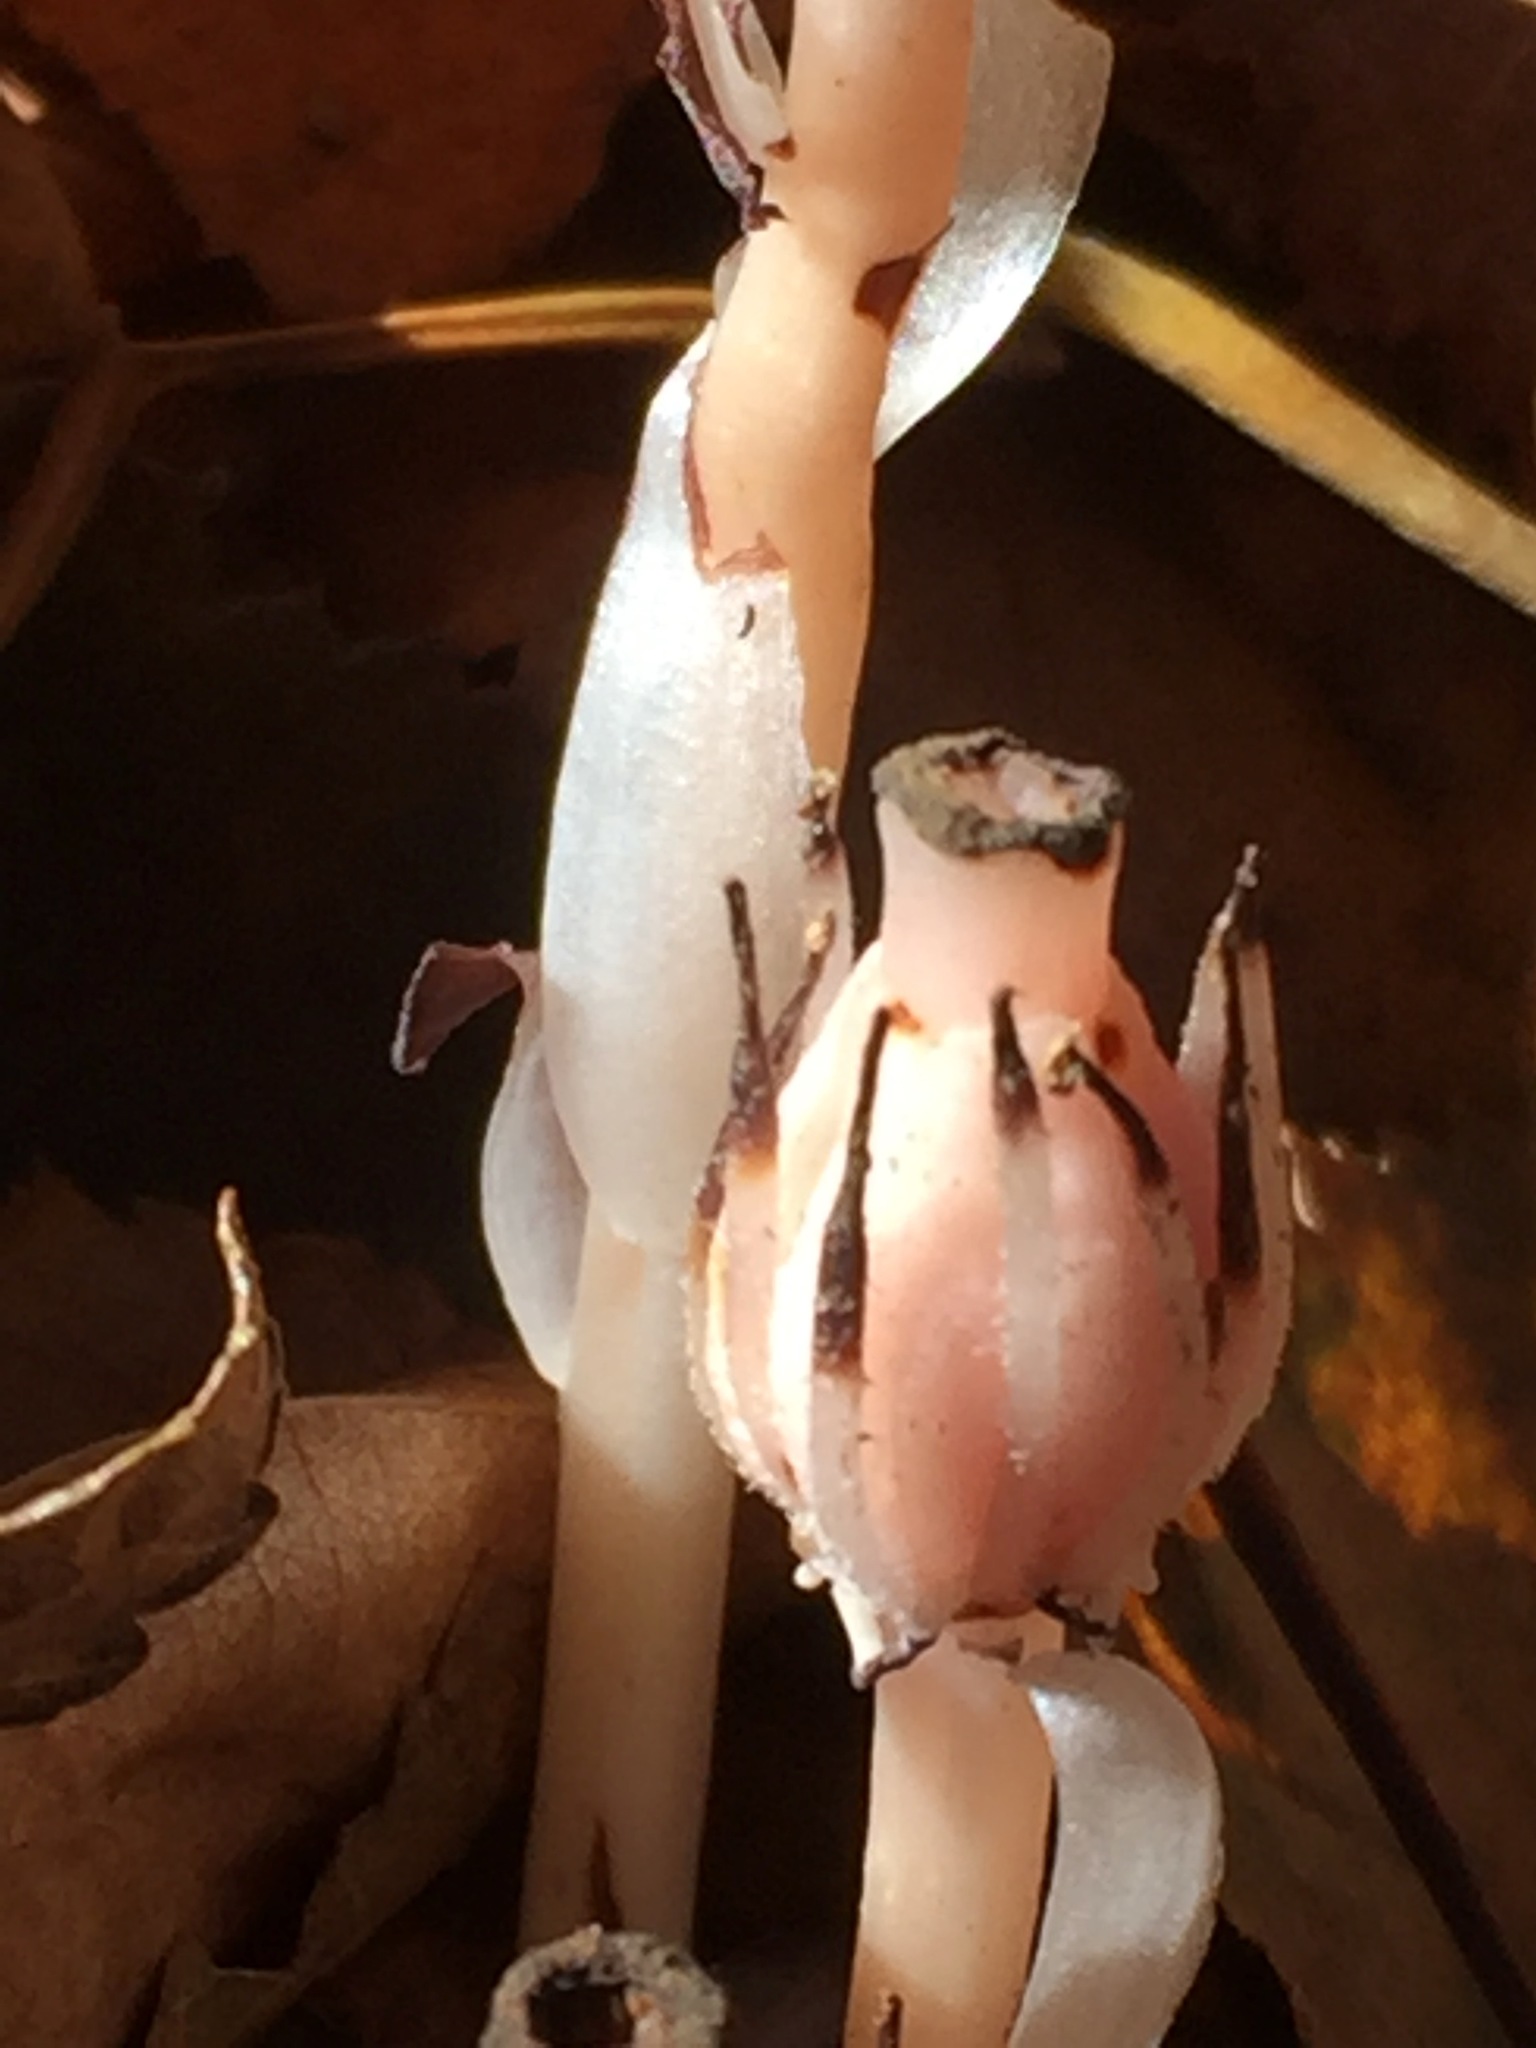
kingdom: Plantae
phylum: Tracheophyta
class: Magnoliopsida
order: Ericales
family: Ericaceae
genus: Monotropa
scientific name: Monotropa uniflora
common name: Convulsion root
